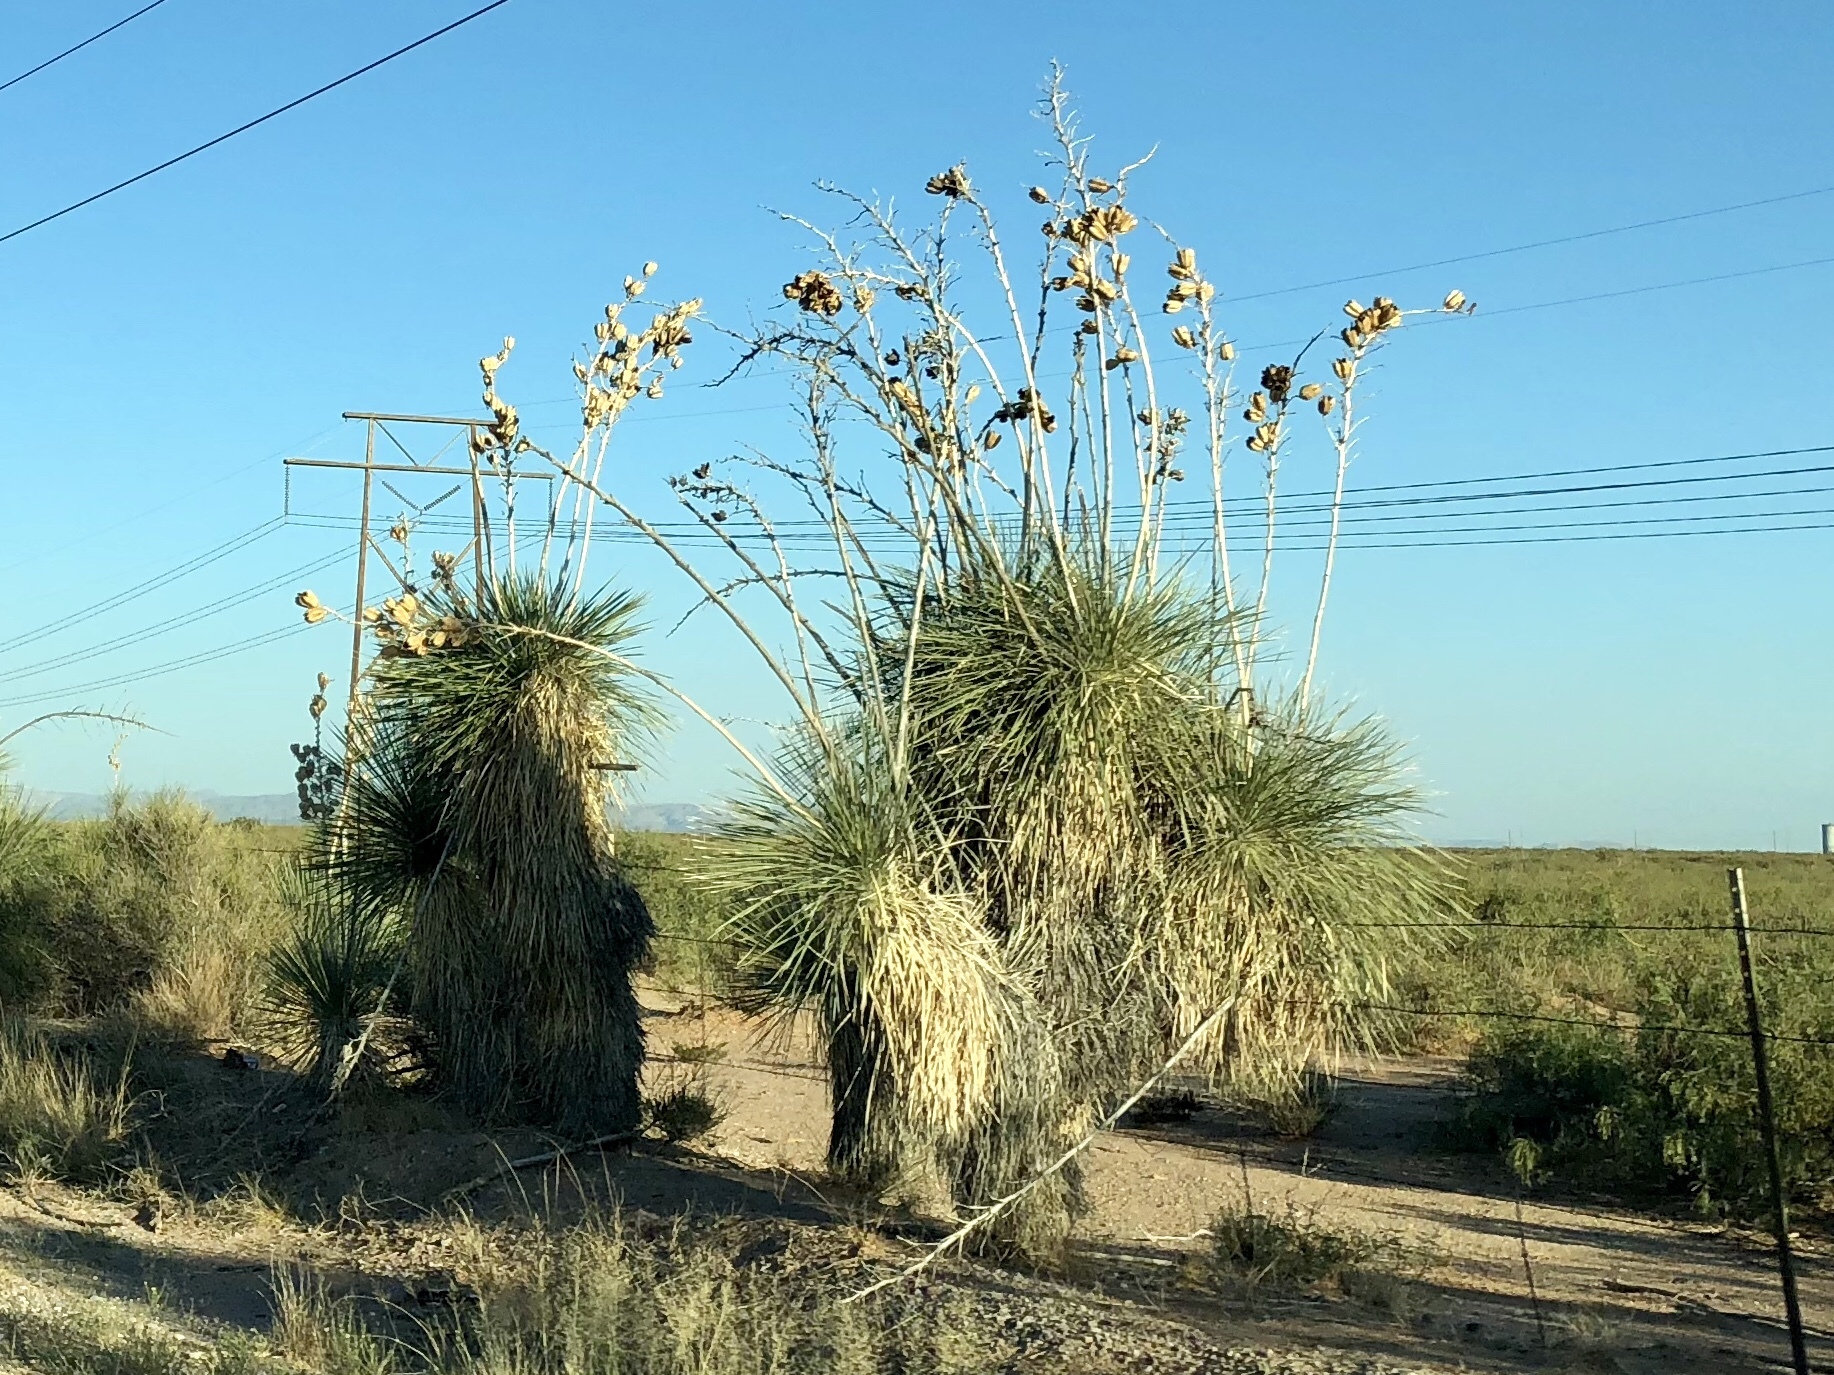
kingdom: Plantae
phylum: Tracheophyta
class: Liliopsida
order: Asparagales
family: Asparagaceae
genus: Yucca
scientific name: Yucca elata
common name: Palmella
